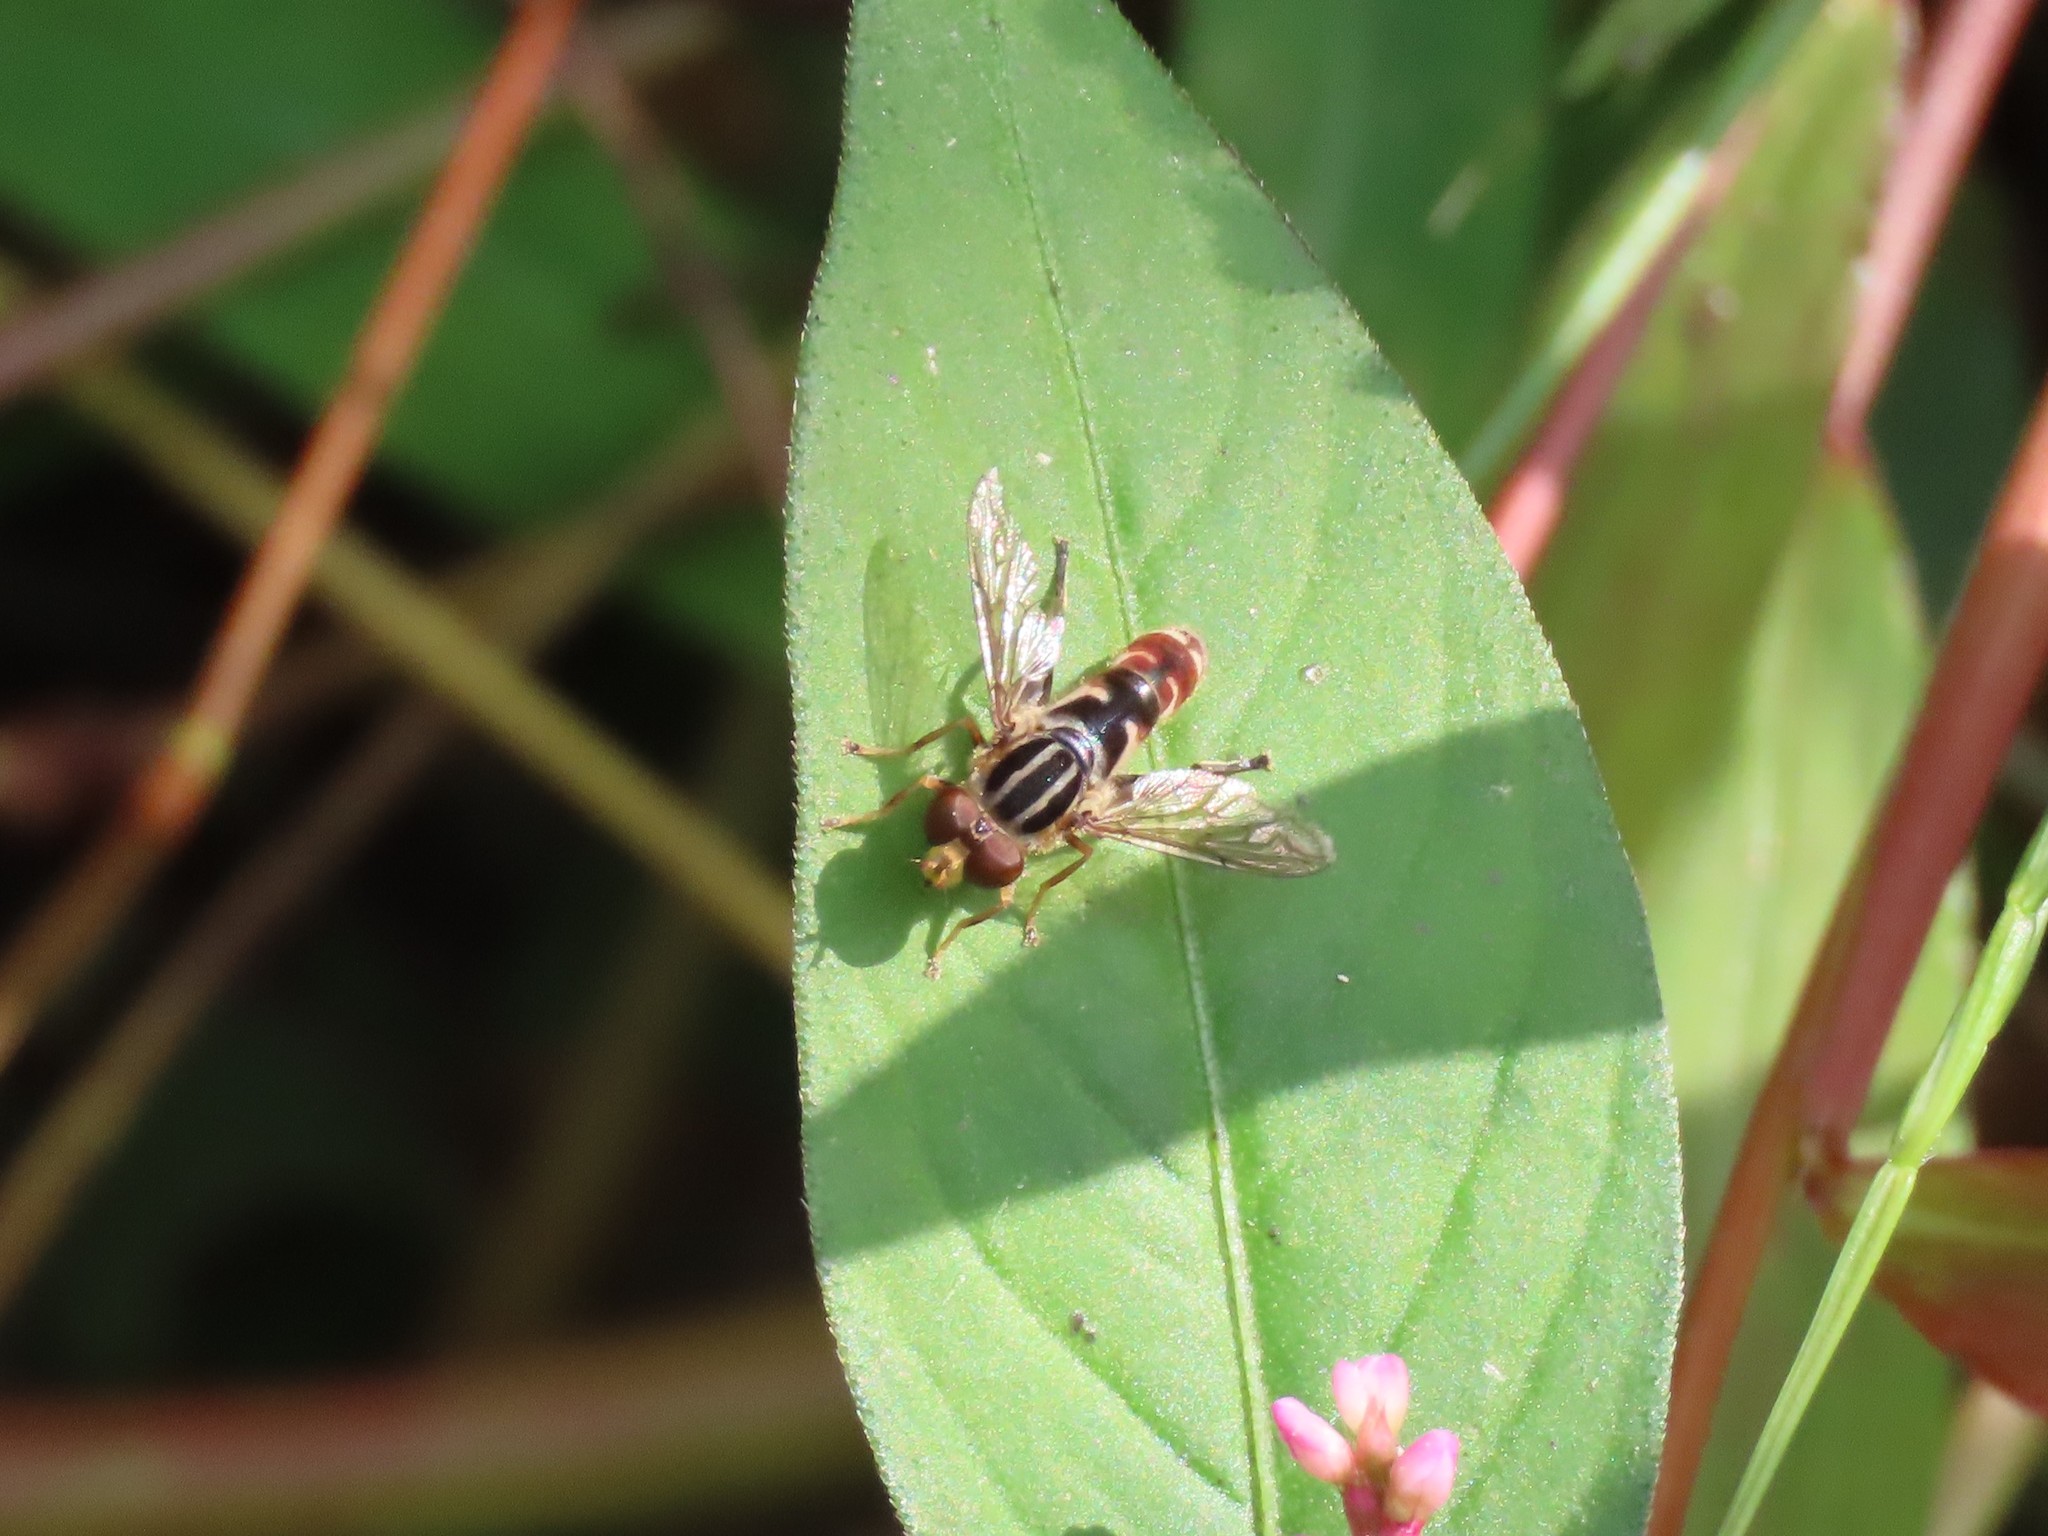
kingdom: Animalia
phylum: Arthropoda
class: Insecta
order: Diptera
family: Syrphidae
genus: Anasimyia
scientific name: Anasimyia
